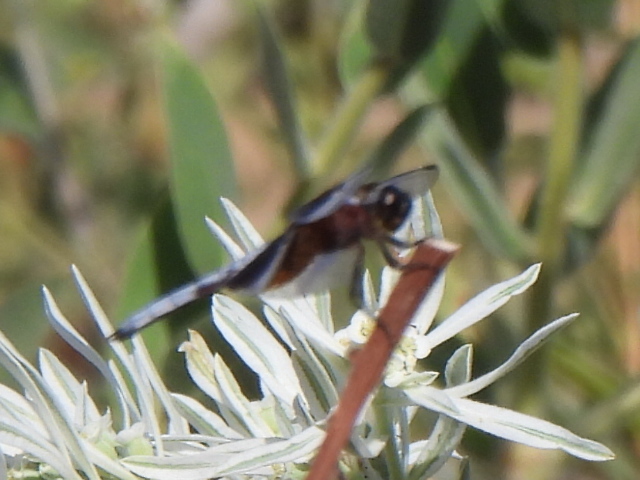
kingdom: Animalia
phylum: Arthropoda
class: Insecta
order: Odonata
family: Libellulidae
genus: Libellula
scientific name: Libellula luctuosa
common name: Widow skimmer
